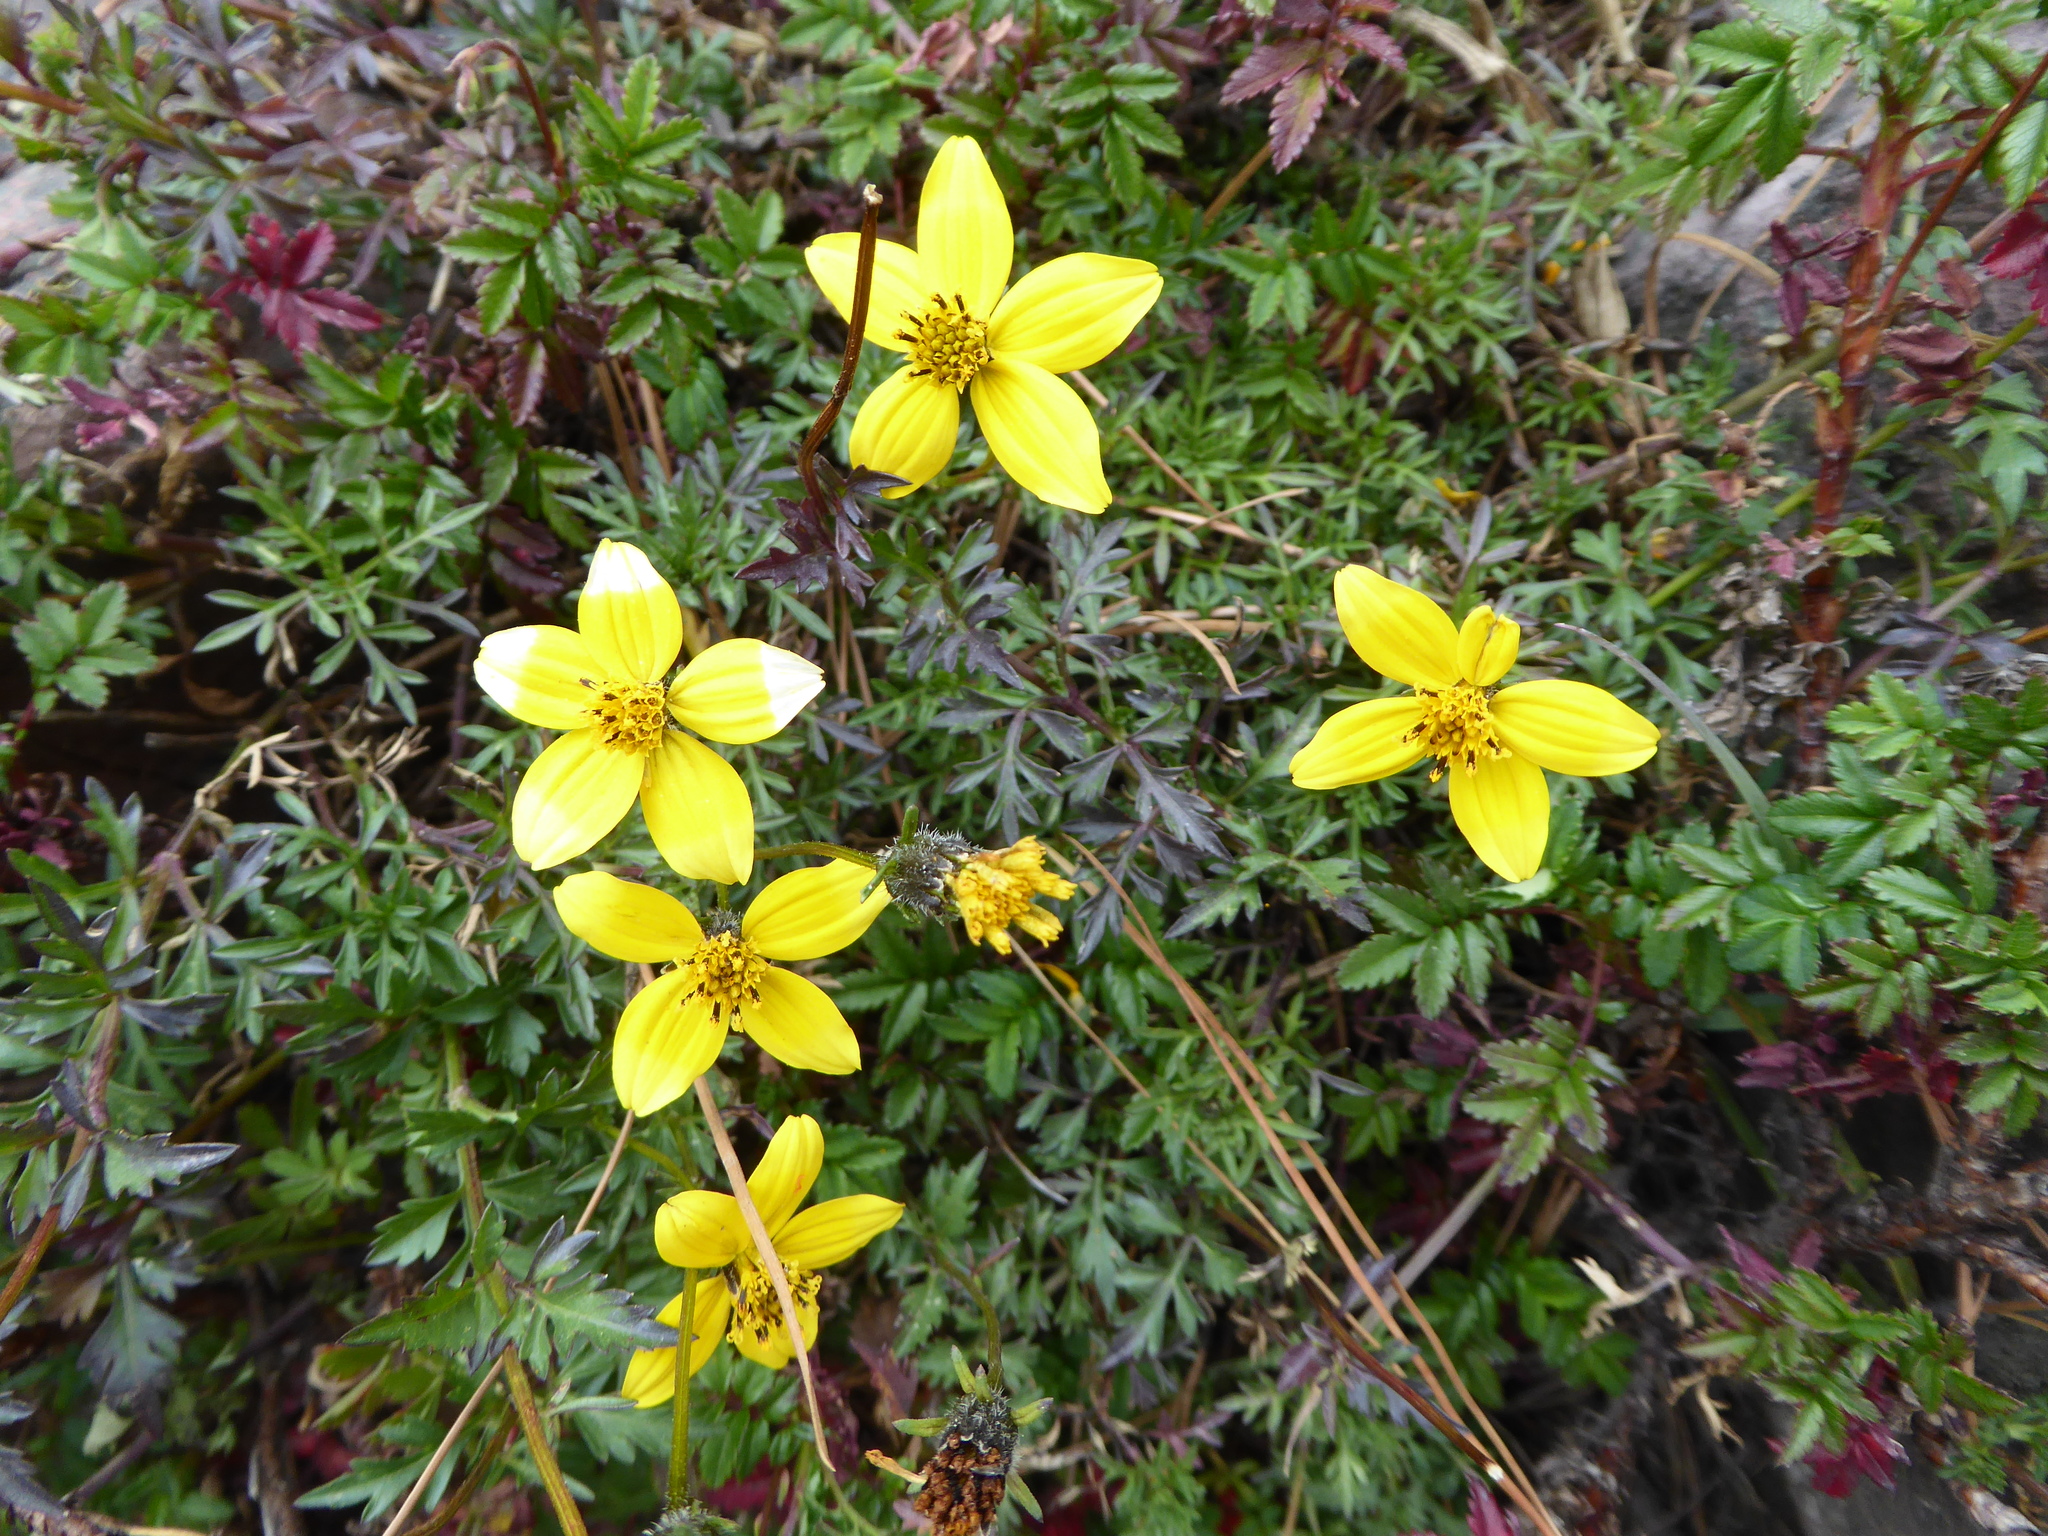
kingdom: Plantae
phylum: Tracheophyta
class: Magnoliopsida
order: Asterales
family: Asteraceae
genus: Bidens
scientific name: Bidens triplinervia
